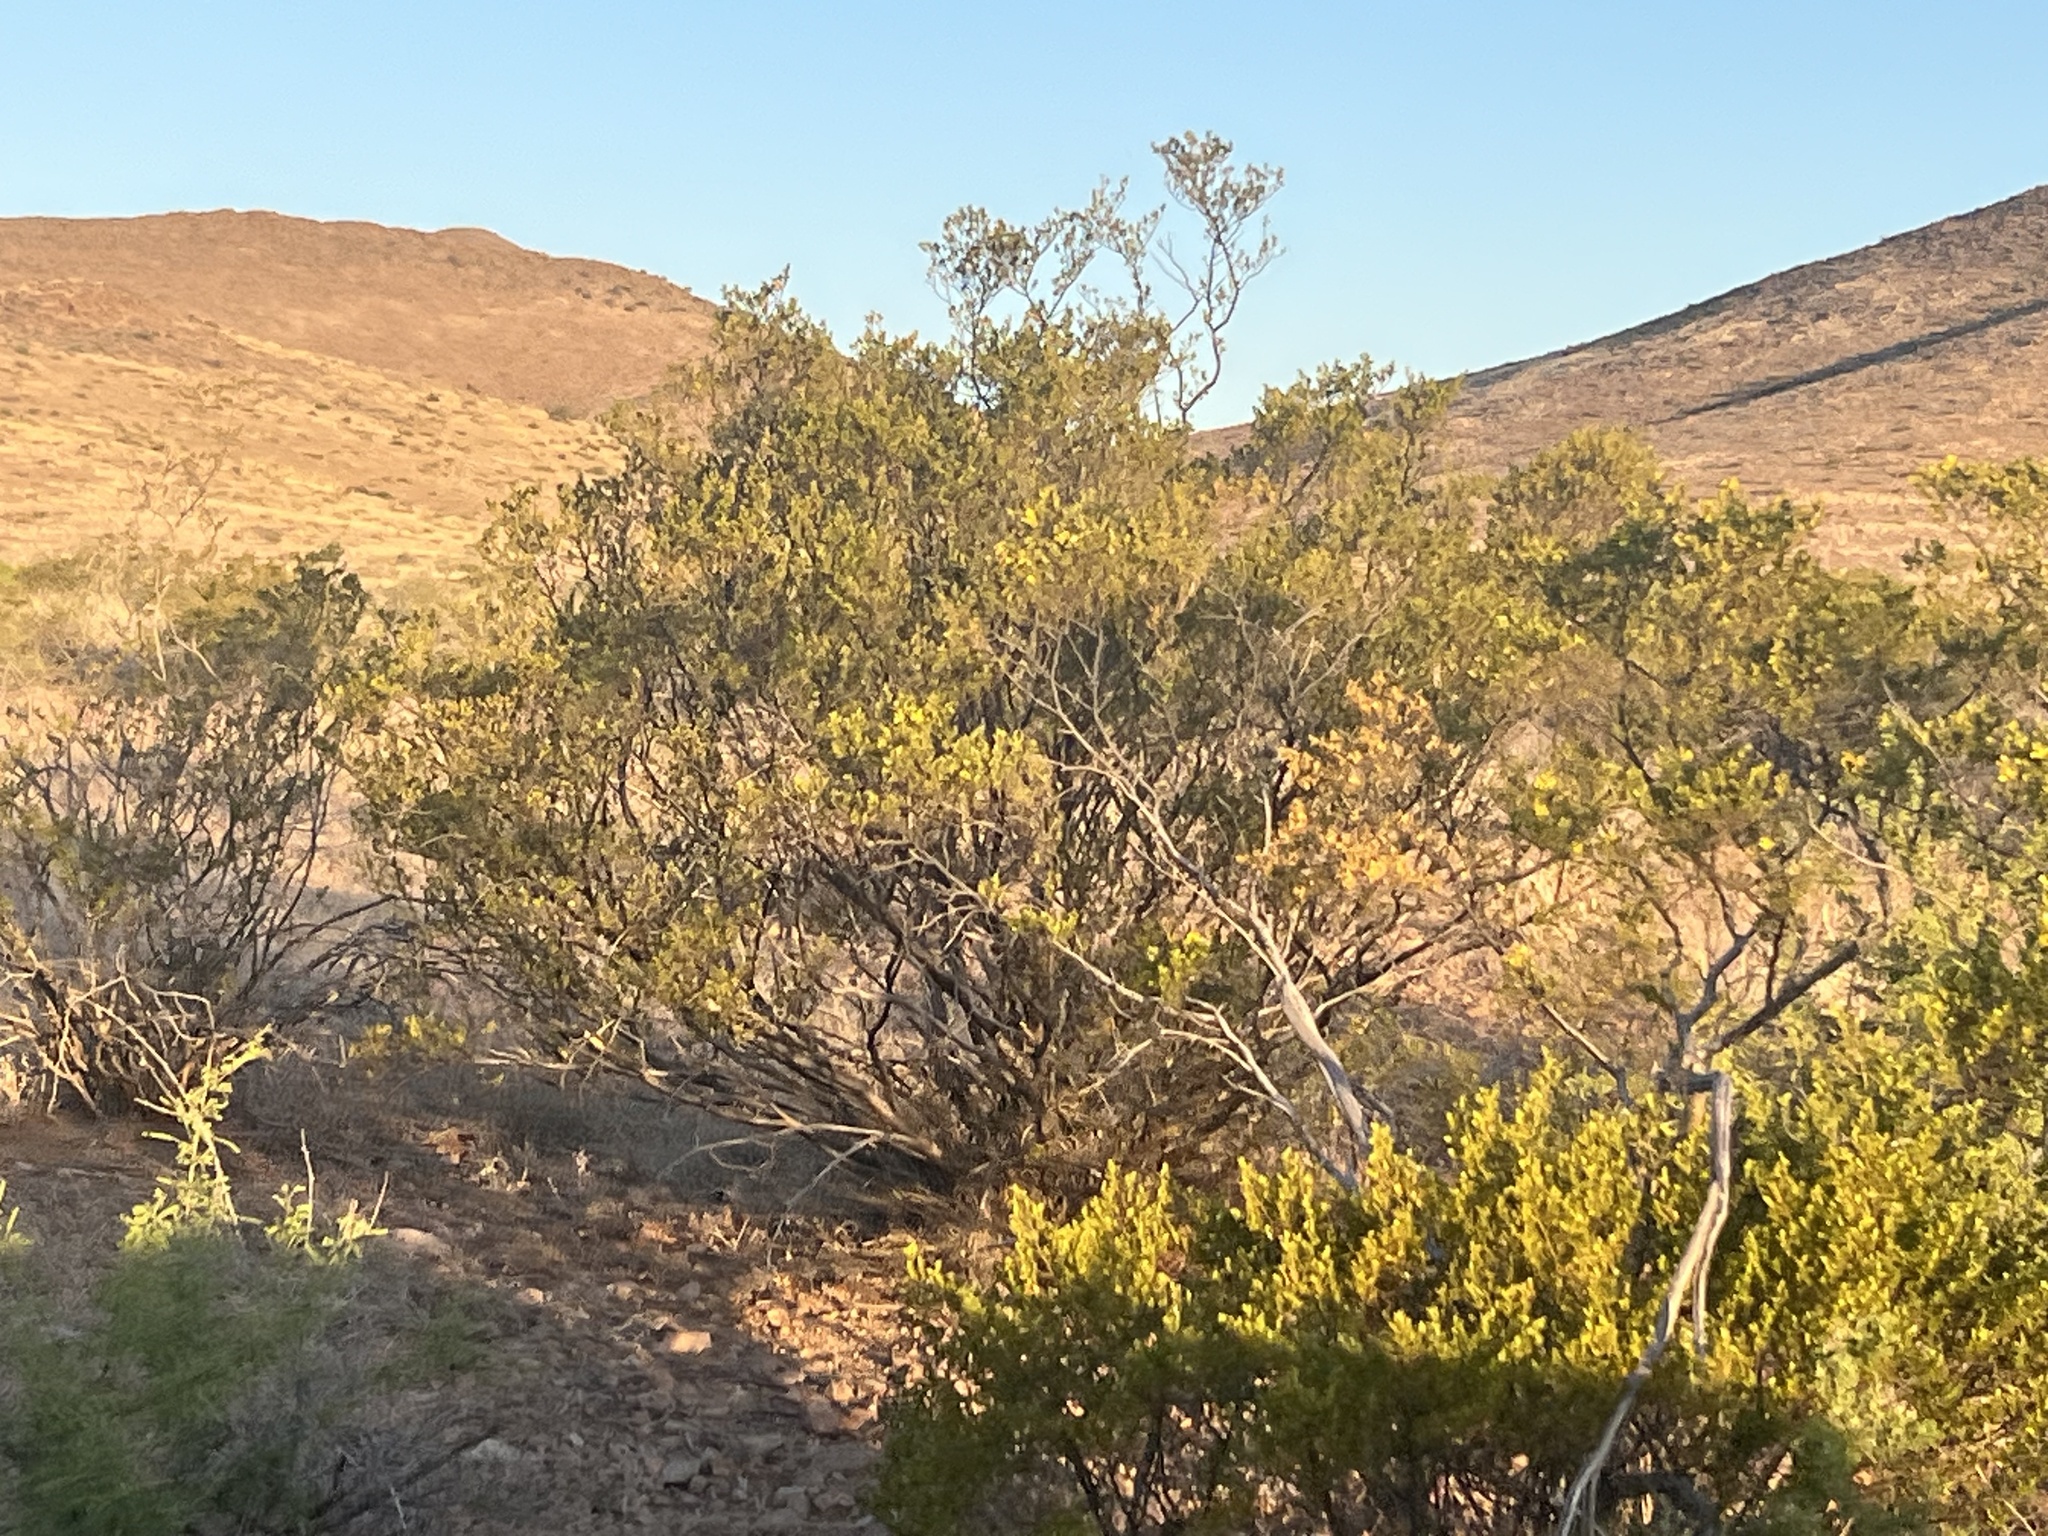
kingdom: Plantae
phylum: Tracheophyta
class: Magnoliopsida
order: Zygophyllales
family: Zygophyllaceae
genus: Larrea
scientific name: Larrea tridentata
